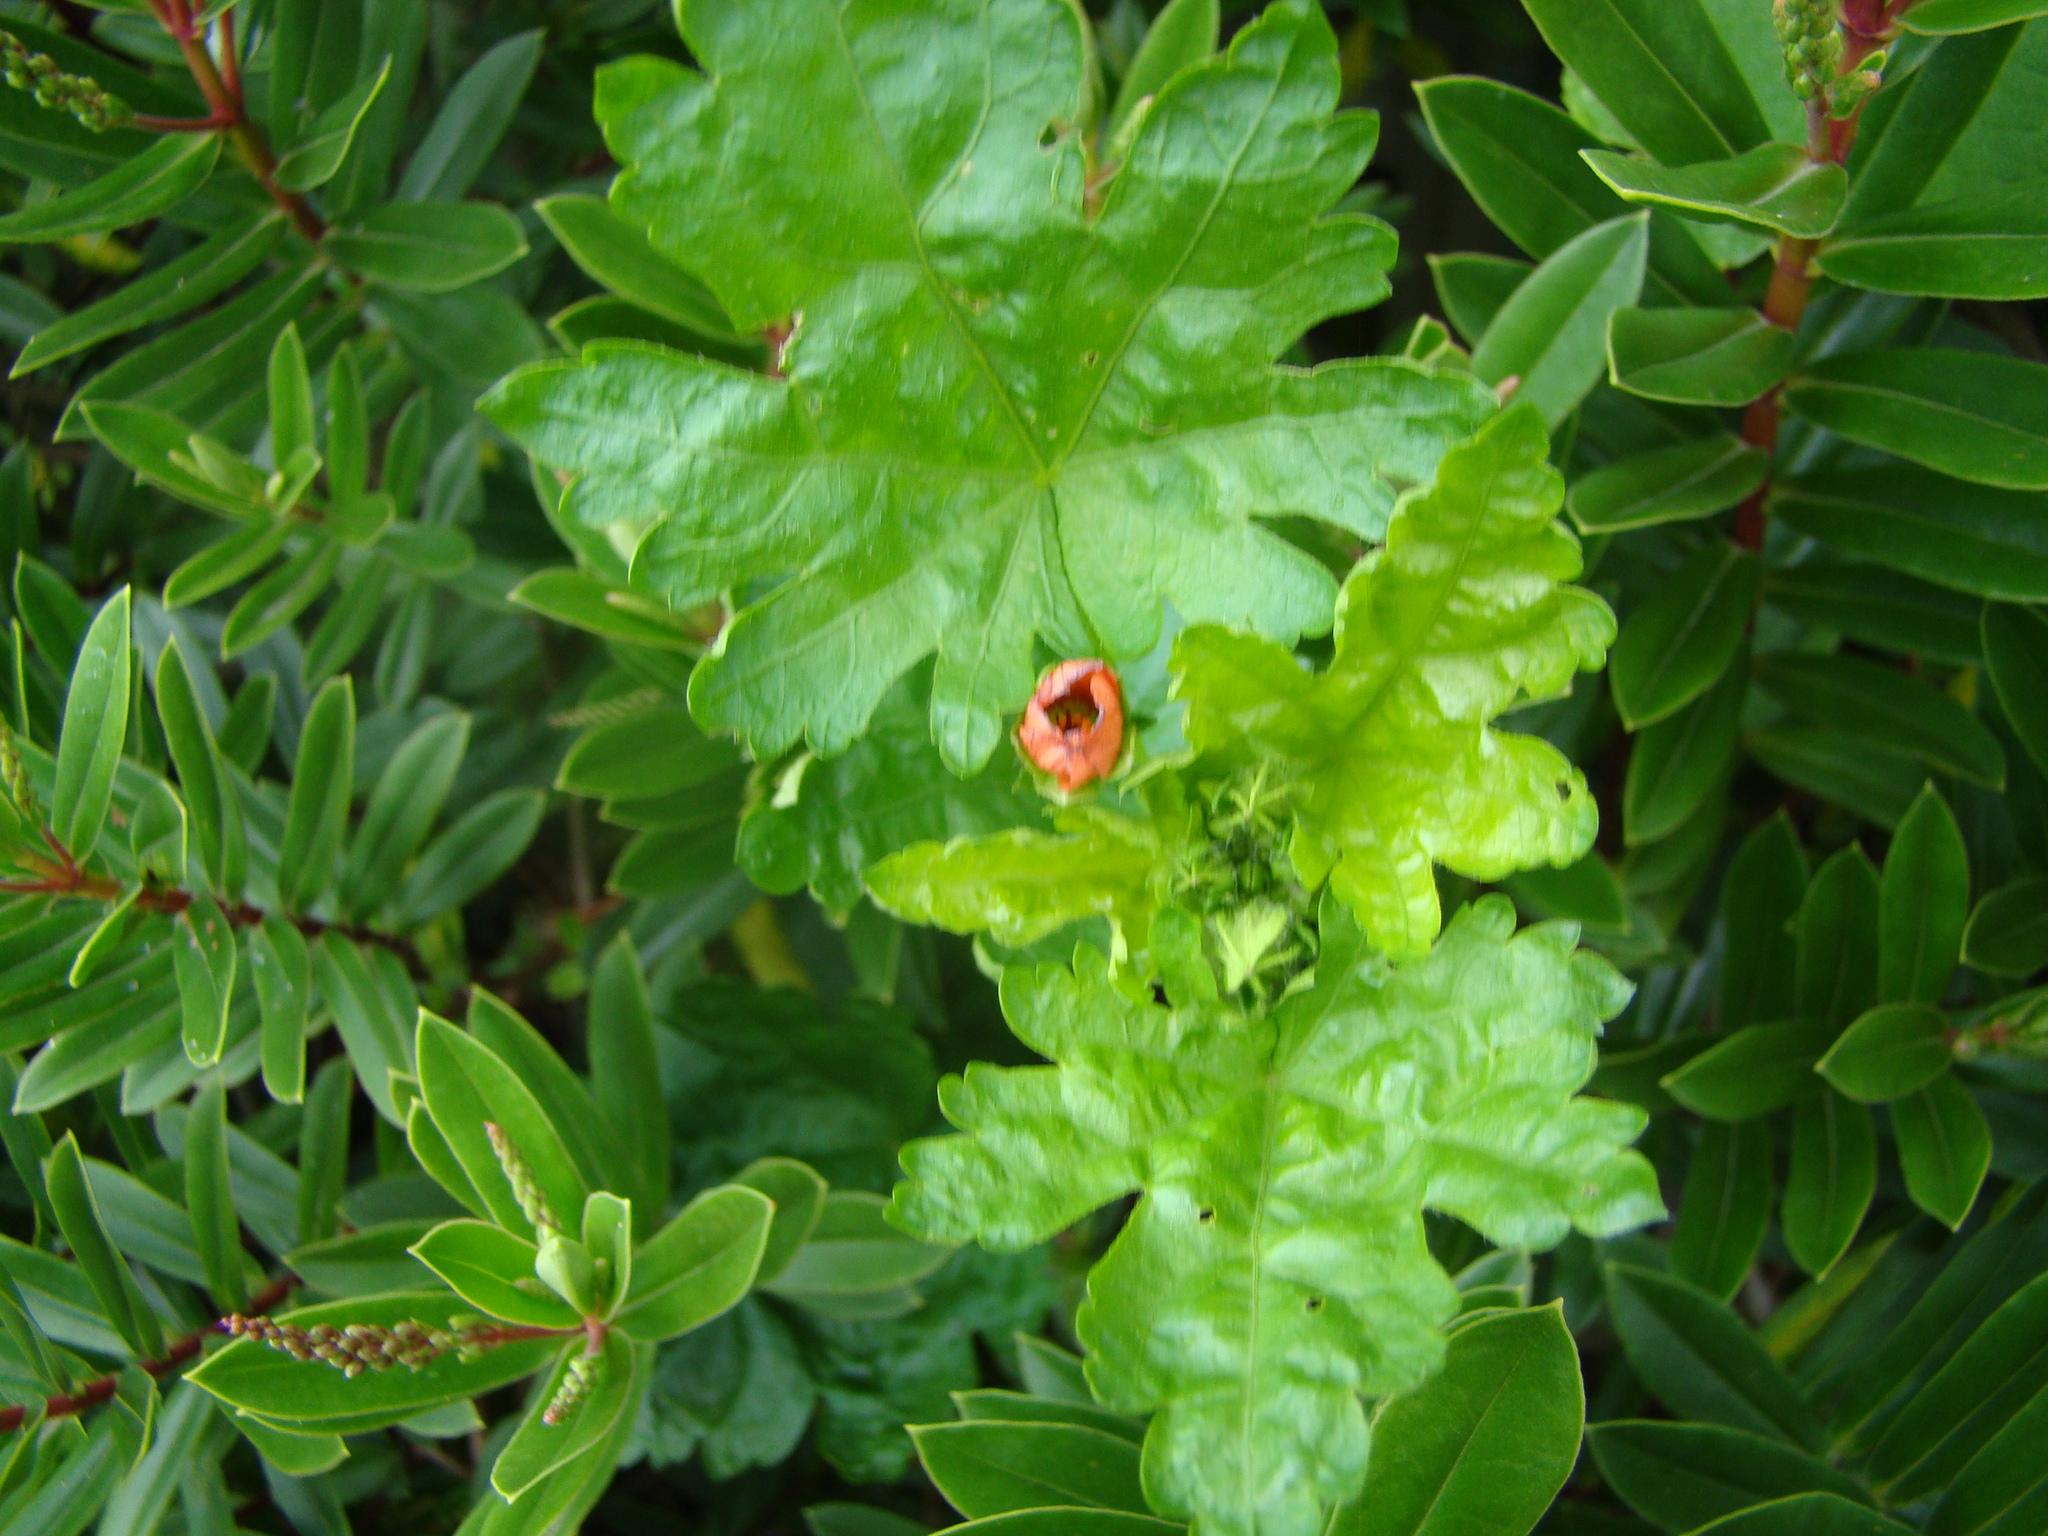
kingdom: Plantae
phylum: Tracheophyta
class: Magnoliopsida
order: Malvales
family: Malvaceae
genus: Modiola
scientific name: Modiola caroliniana
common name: Carolina bristlemallow
